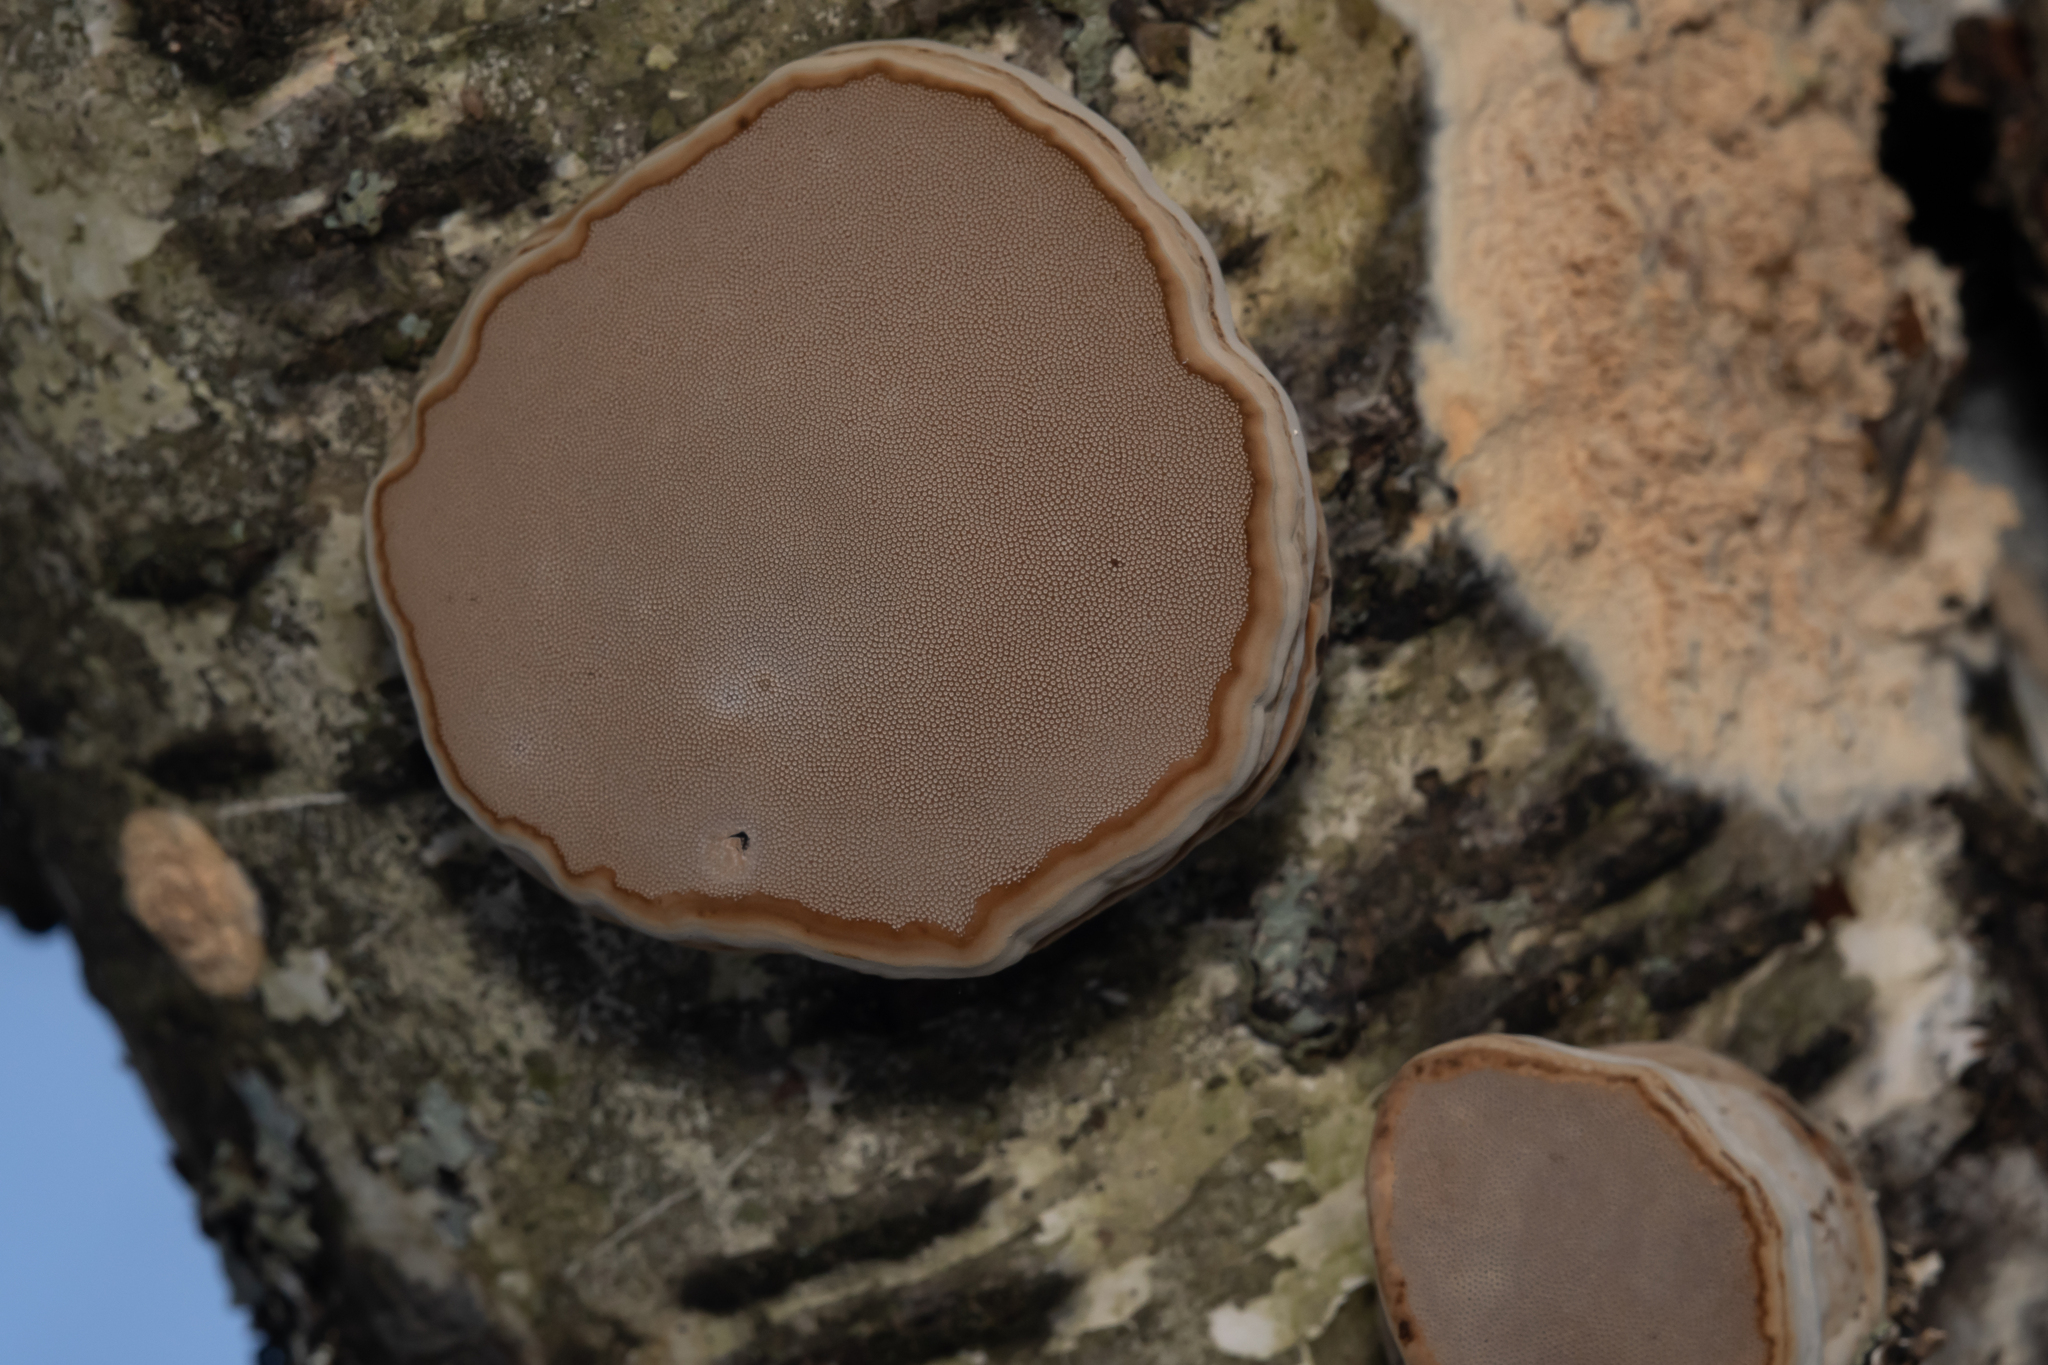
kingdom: Fungi
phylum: Basidiomycota
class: Agaricomycetes
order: Polyporales
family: Polyporaceae
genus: Fomes
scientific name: Fomes fomentarius
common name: Hoof fungus
